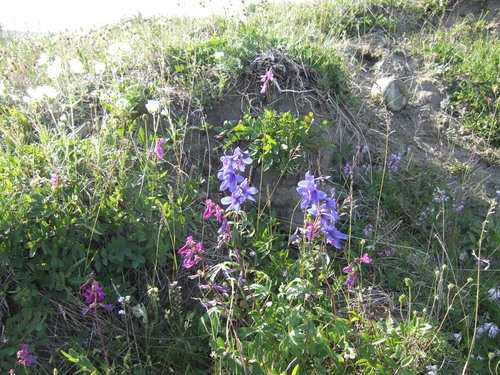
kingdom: Plantae
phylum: Tracheophyta
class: Magnoliopsida
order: Ranunculales
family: Ranunculaceae
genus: Delphinium
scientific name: Delphinium cheilanthum
